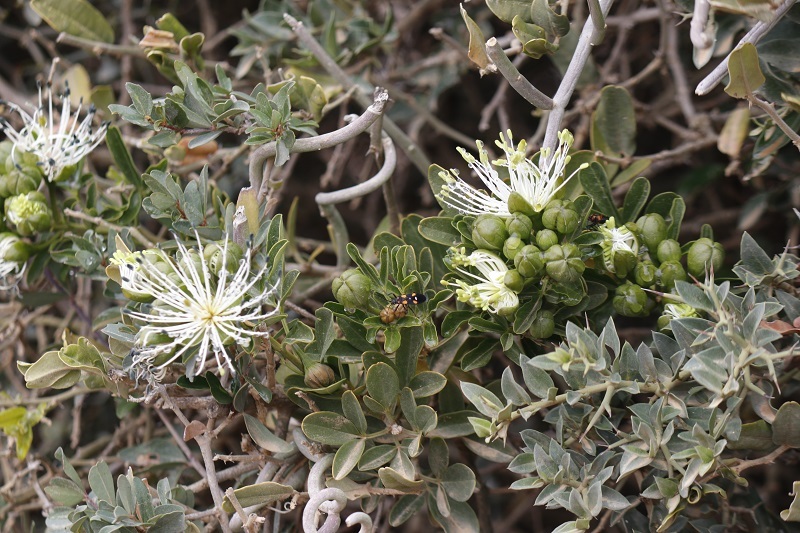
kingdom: Plantae
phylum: Tracheophyta
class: Magnoliopsida
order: Brassicales
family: Capparaceae
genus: Maerua
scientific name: Maerua cafra
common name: Bush maerua
